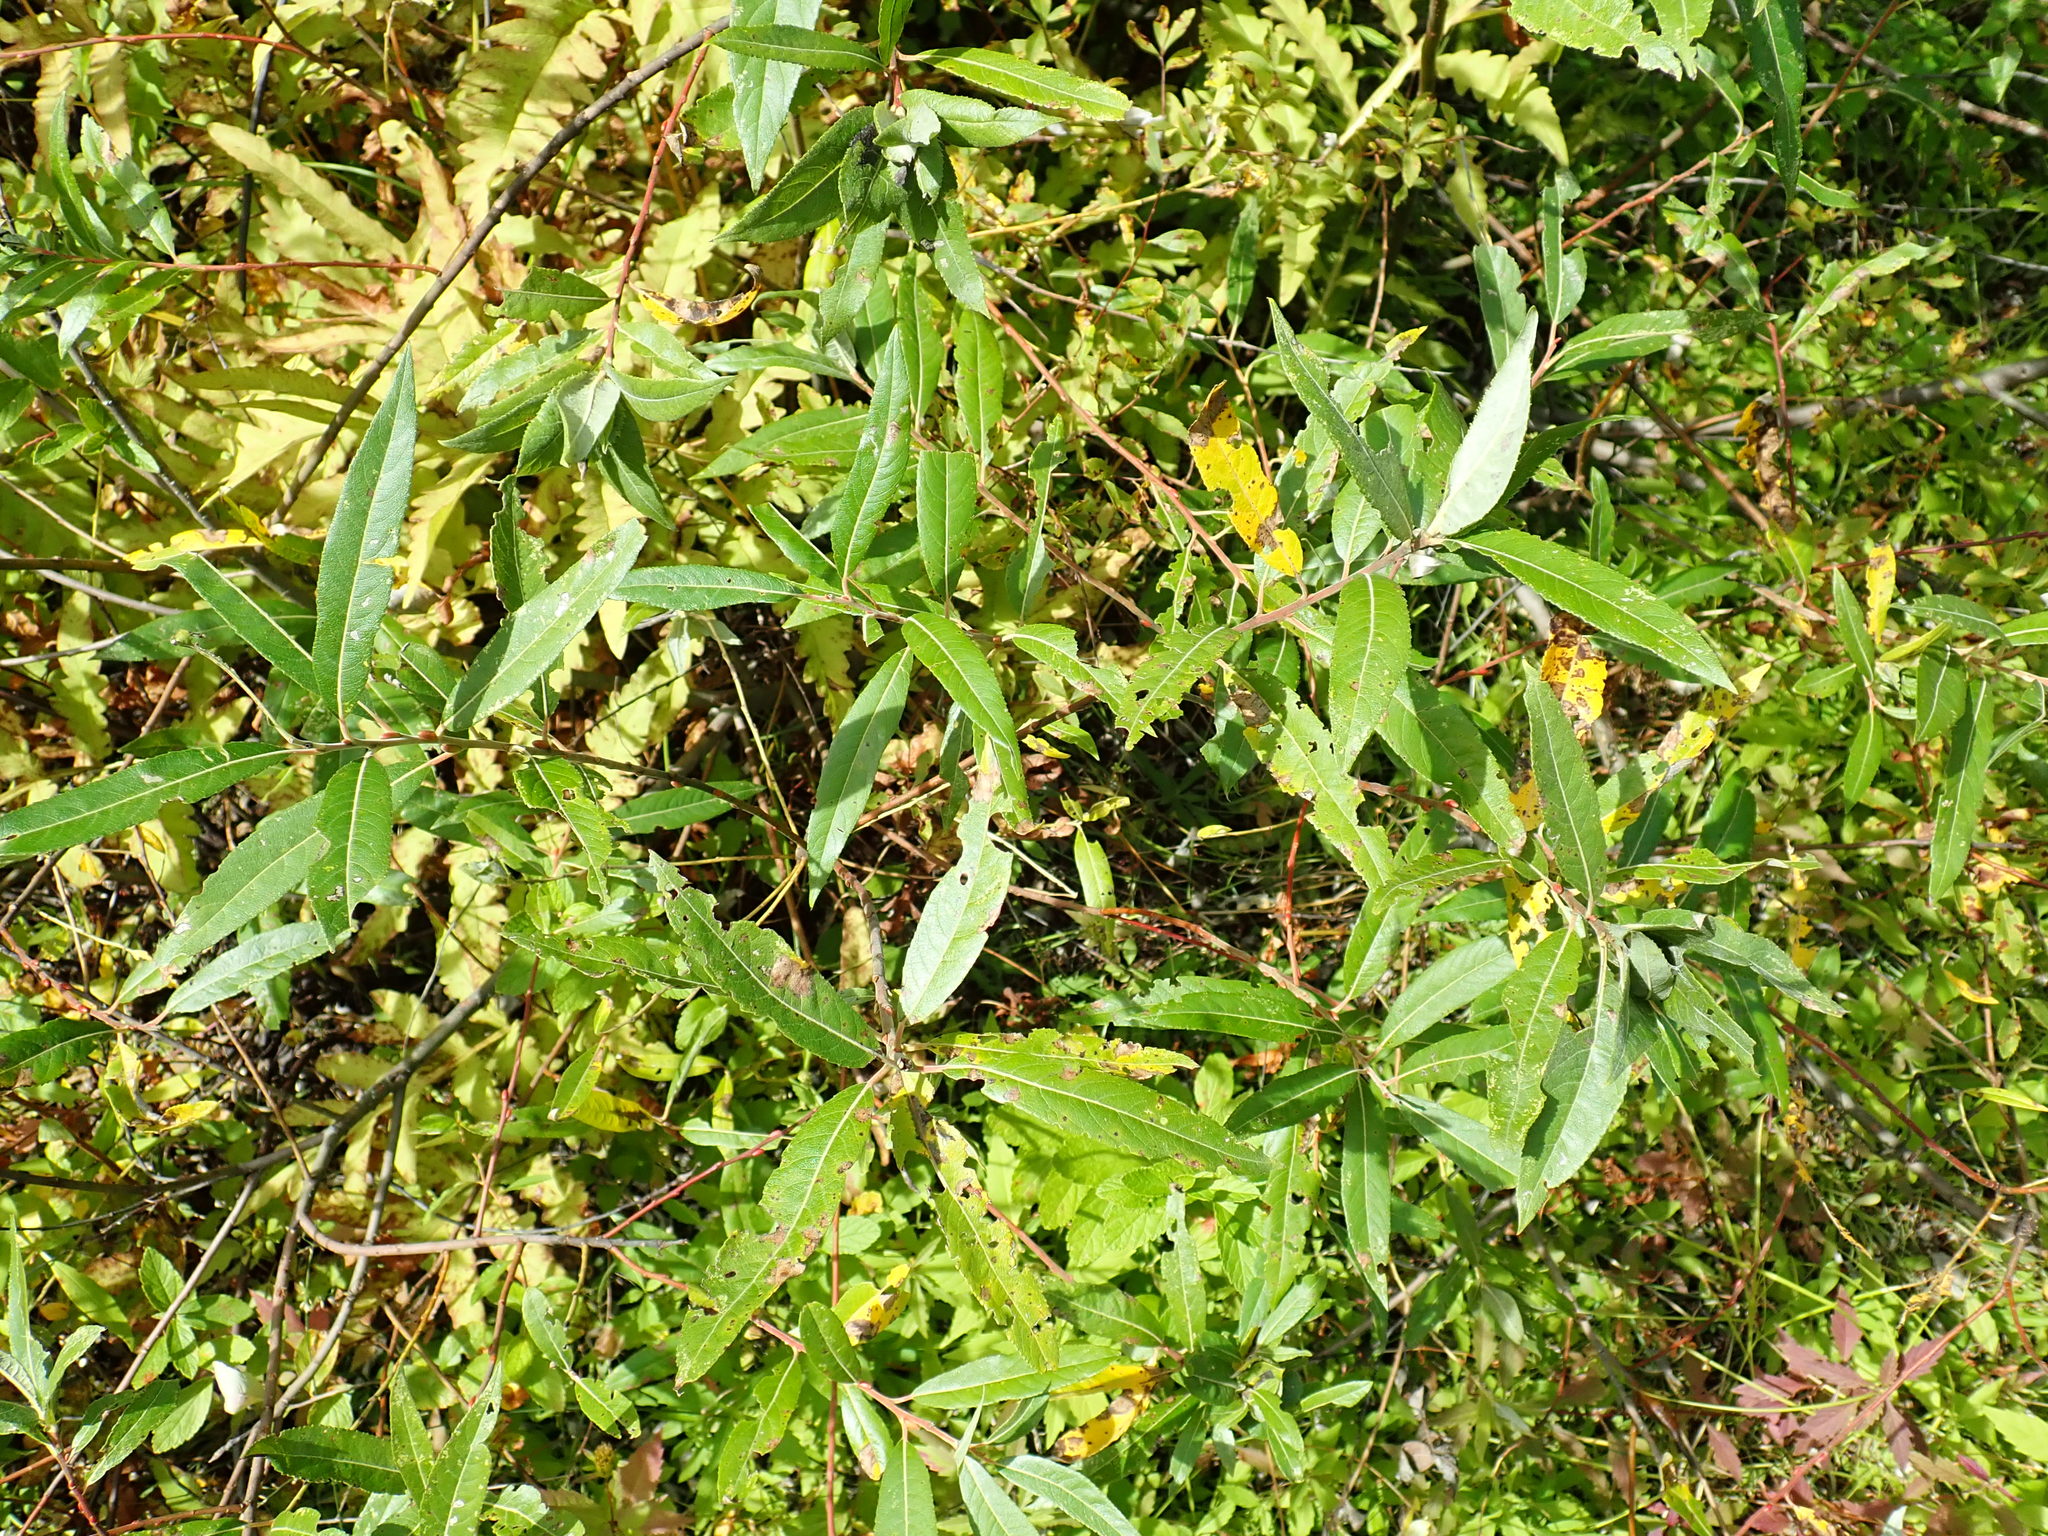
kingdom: Plantae
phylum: Tracheophyta
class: Magnoliopsida
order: Malpighiales
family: Salicaceae
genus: Salix
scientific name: Salix
